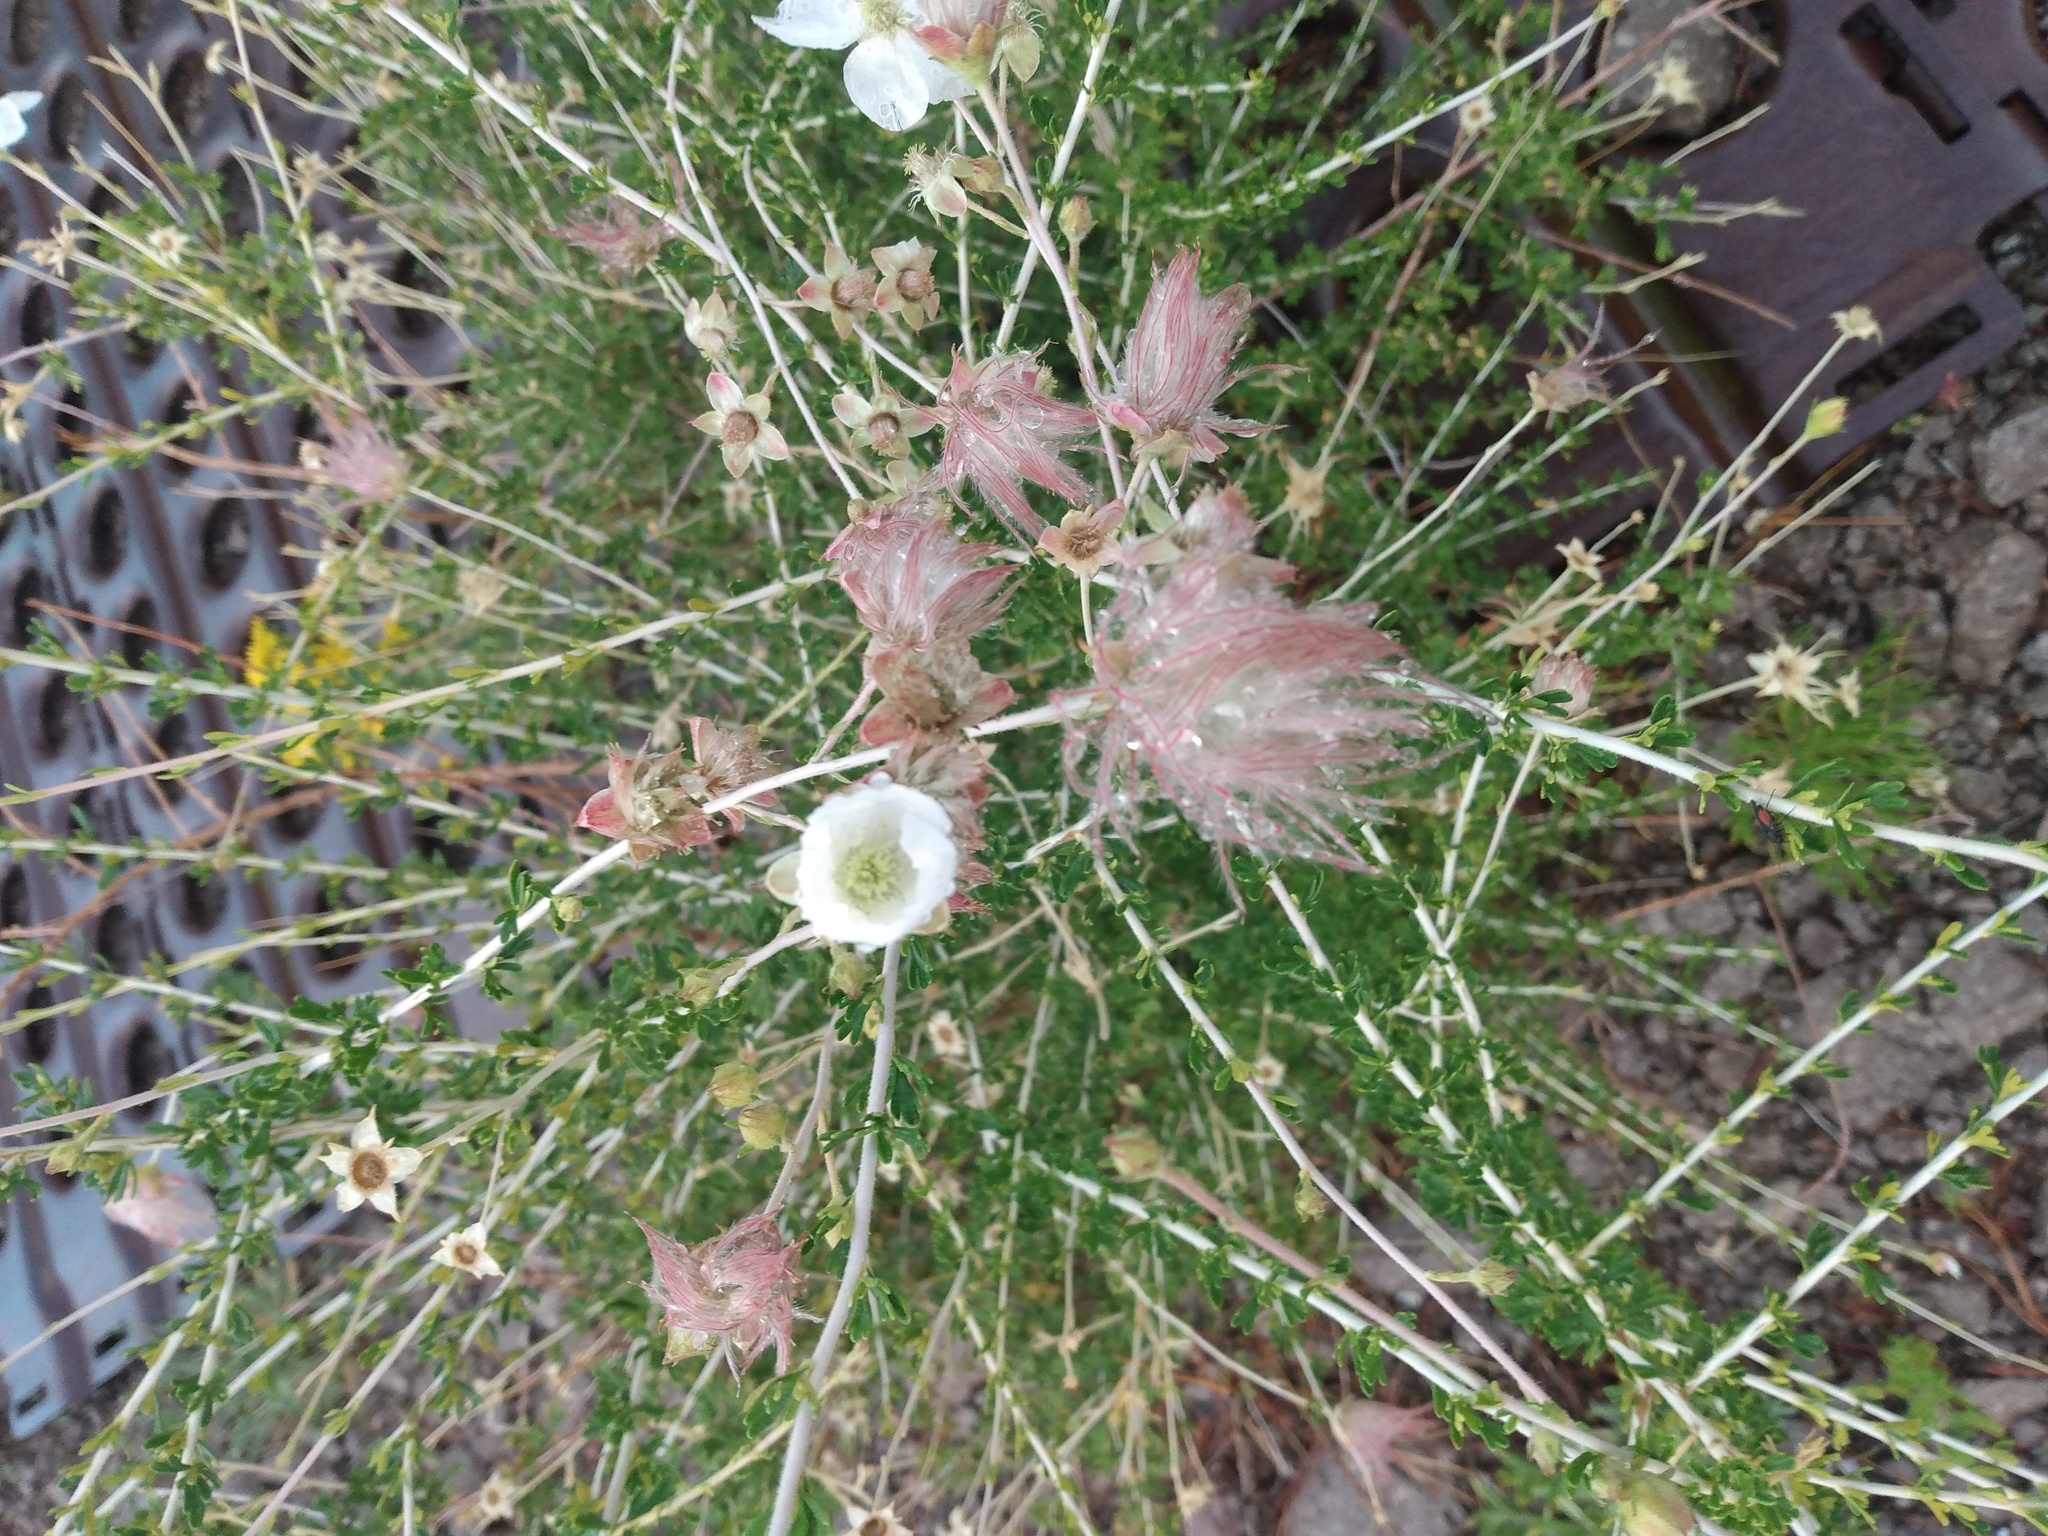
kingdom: Plantae
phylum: Tracheophyta
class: Magnoliopsida
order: Rosales
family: Rosaceae
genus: Fallugia
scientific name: Fallugia paradoxa
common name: Apache-plume
